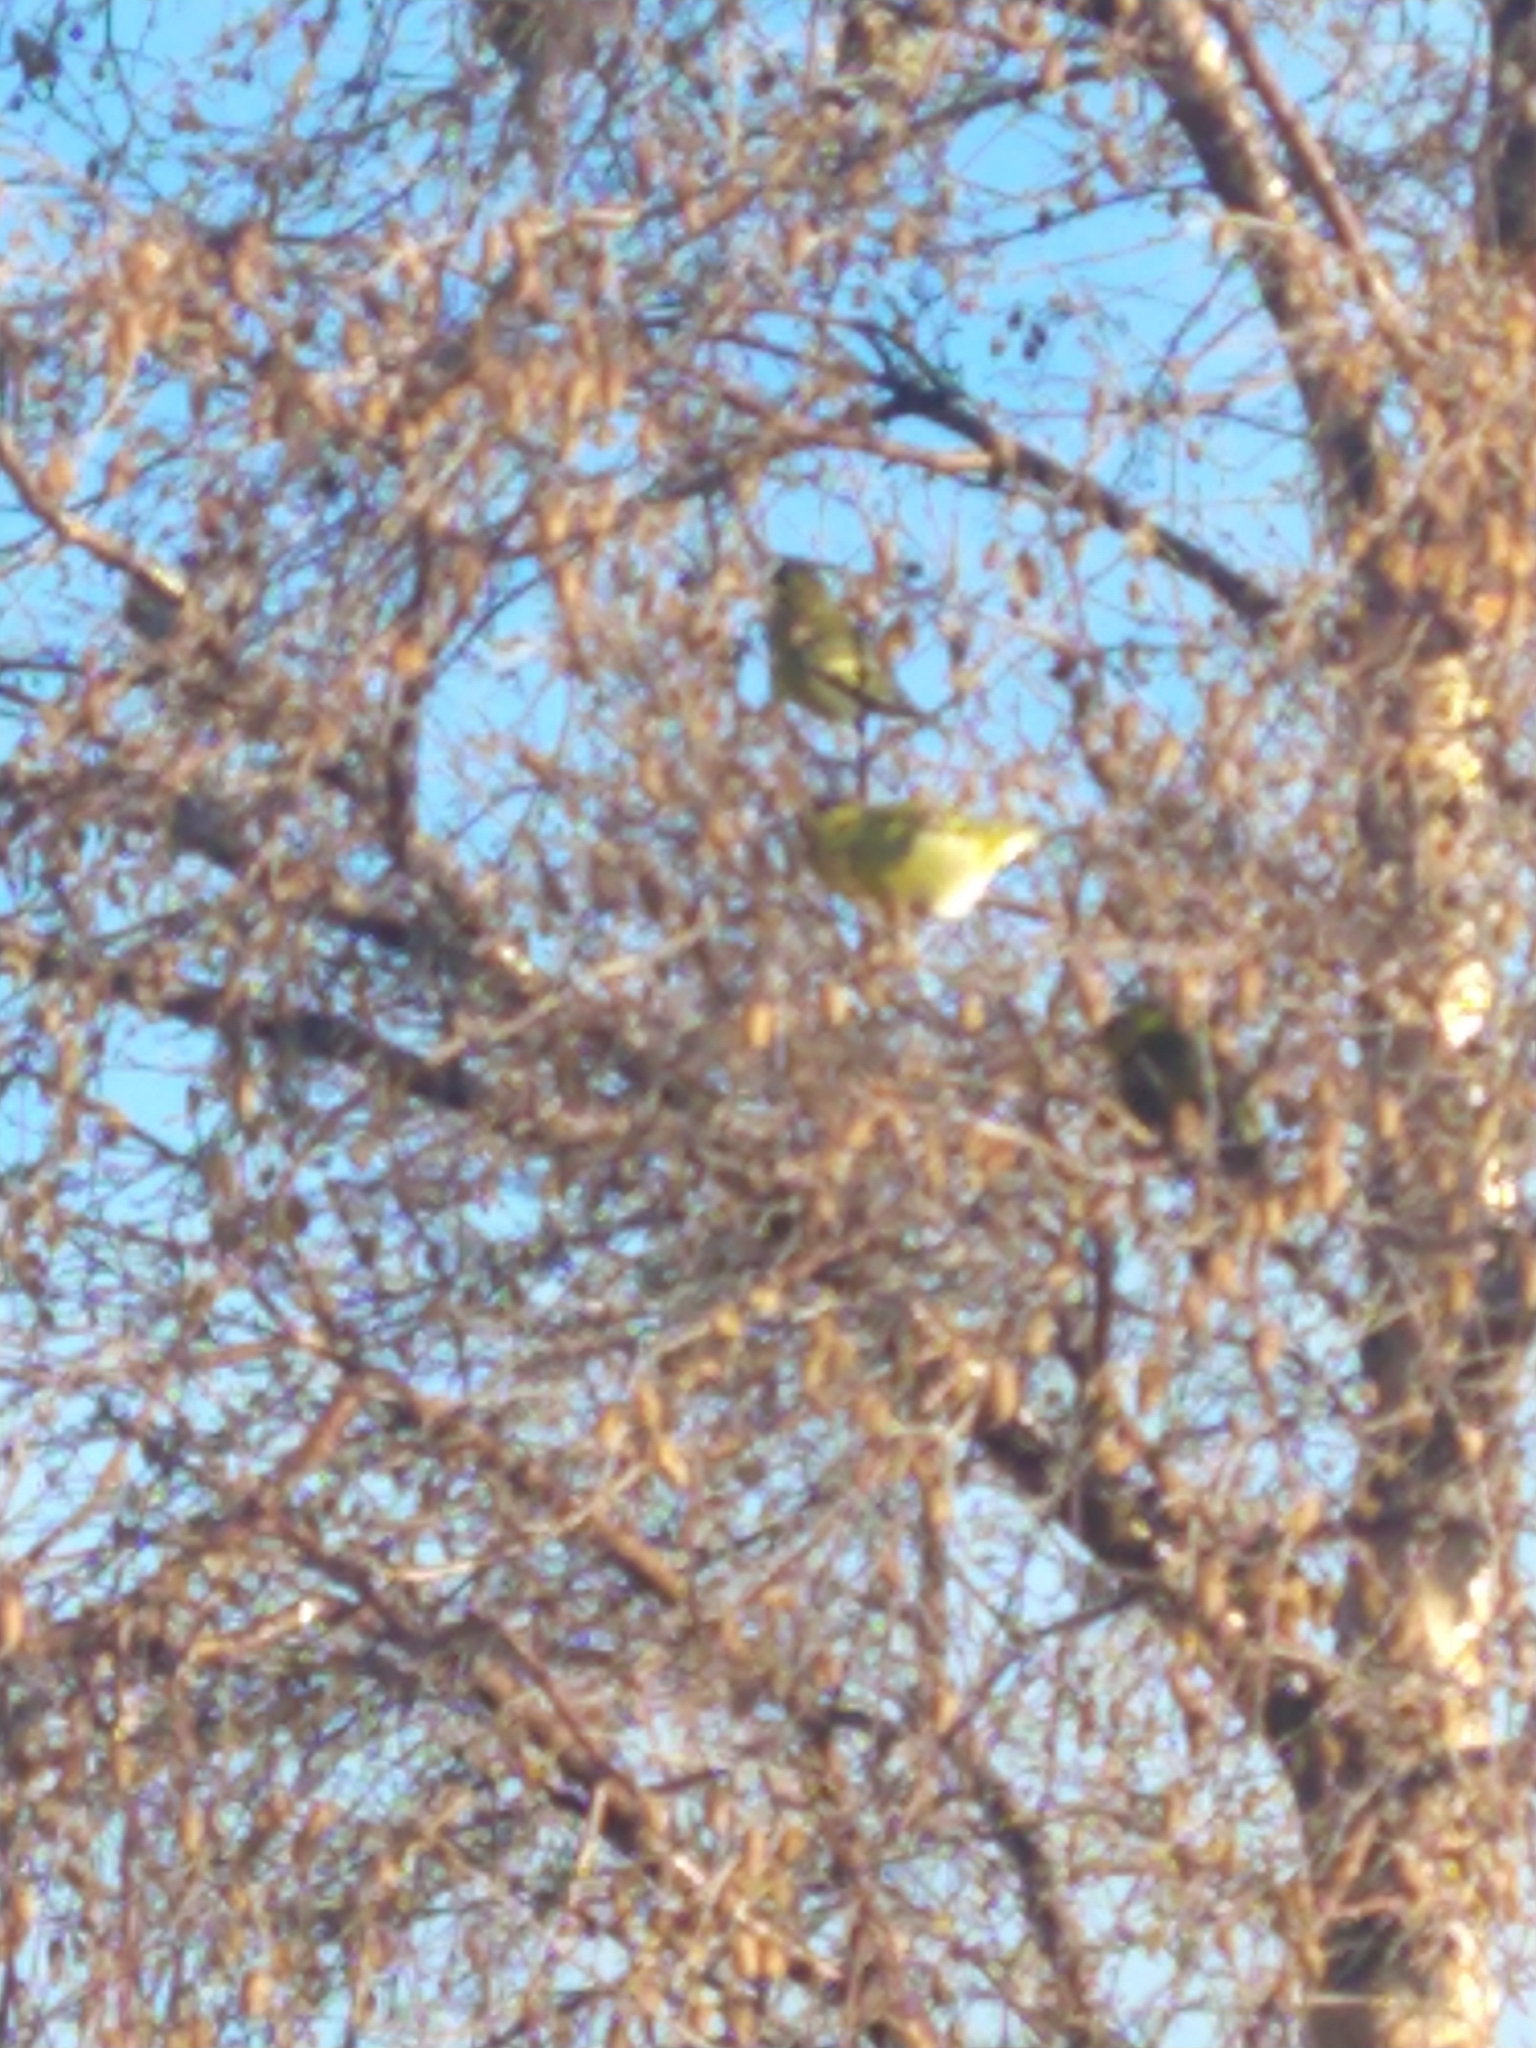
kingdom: Animalia
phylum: Chordata
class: Aves
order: Passeriformes
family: Fringillidae
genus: Spinus
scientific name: Spinus barbatus
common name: Black-chinned siskin
